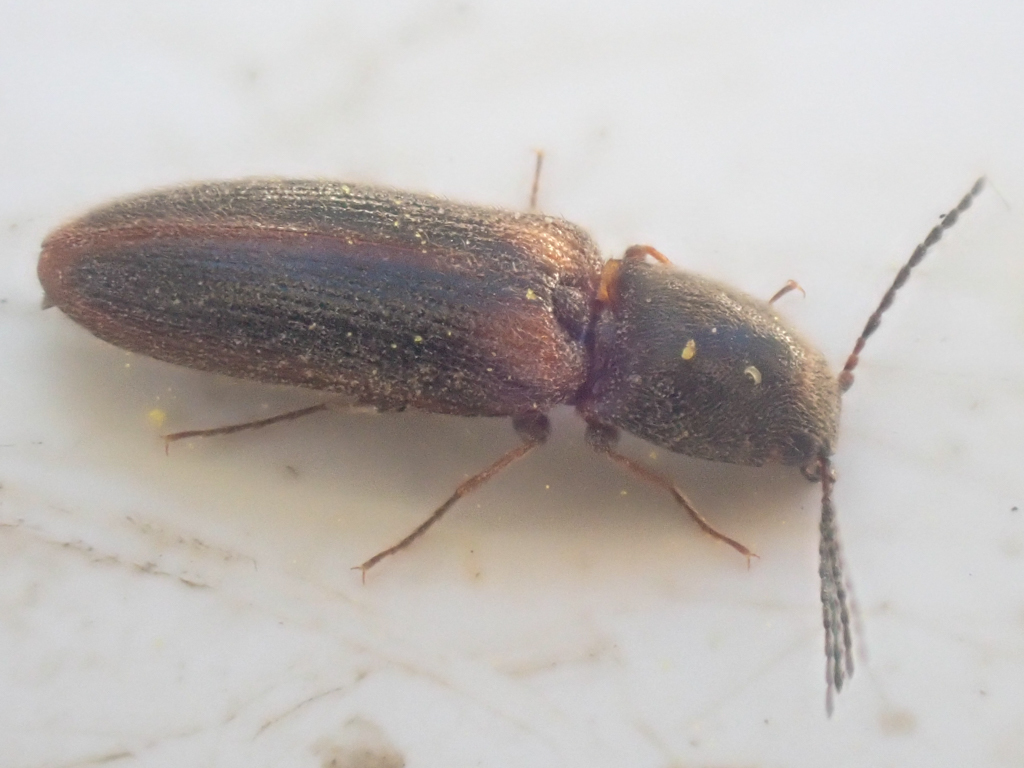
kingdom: Animalia
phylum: Arthropoda
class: Insecta
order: Coleoptera
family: Elateridae
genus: Tetralimonius
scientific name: Tetralimonius
